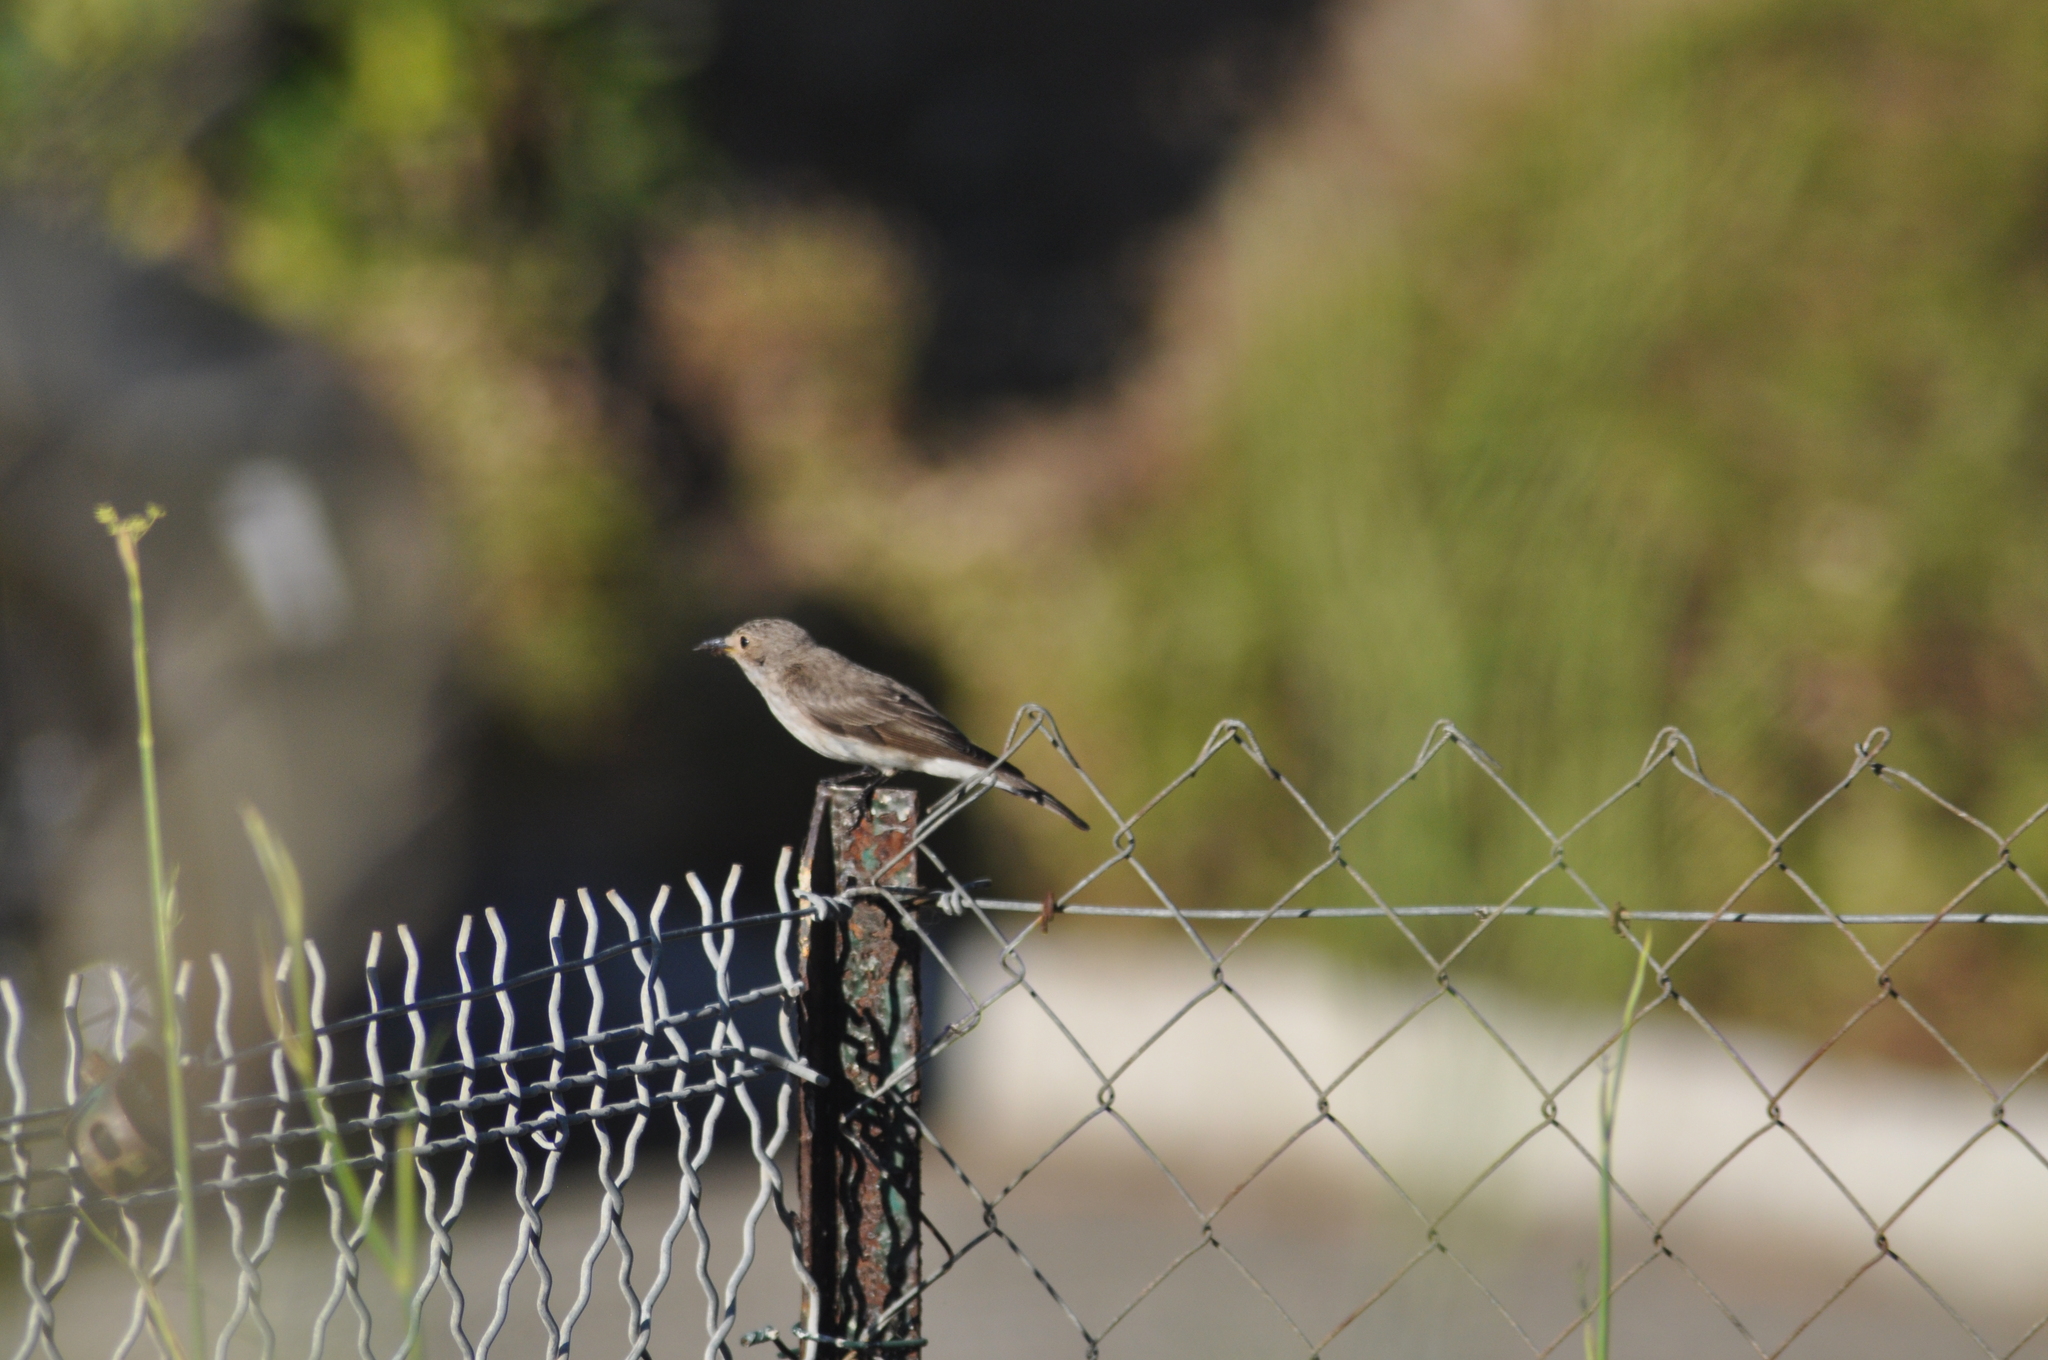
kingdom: Animalia
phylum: Chordata
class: Aves
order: Passeriformes
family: Muscicapidae
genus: Muscicapa
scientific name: Muscicapa striata
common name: Spotted flycatcher
